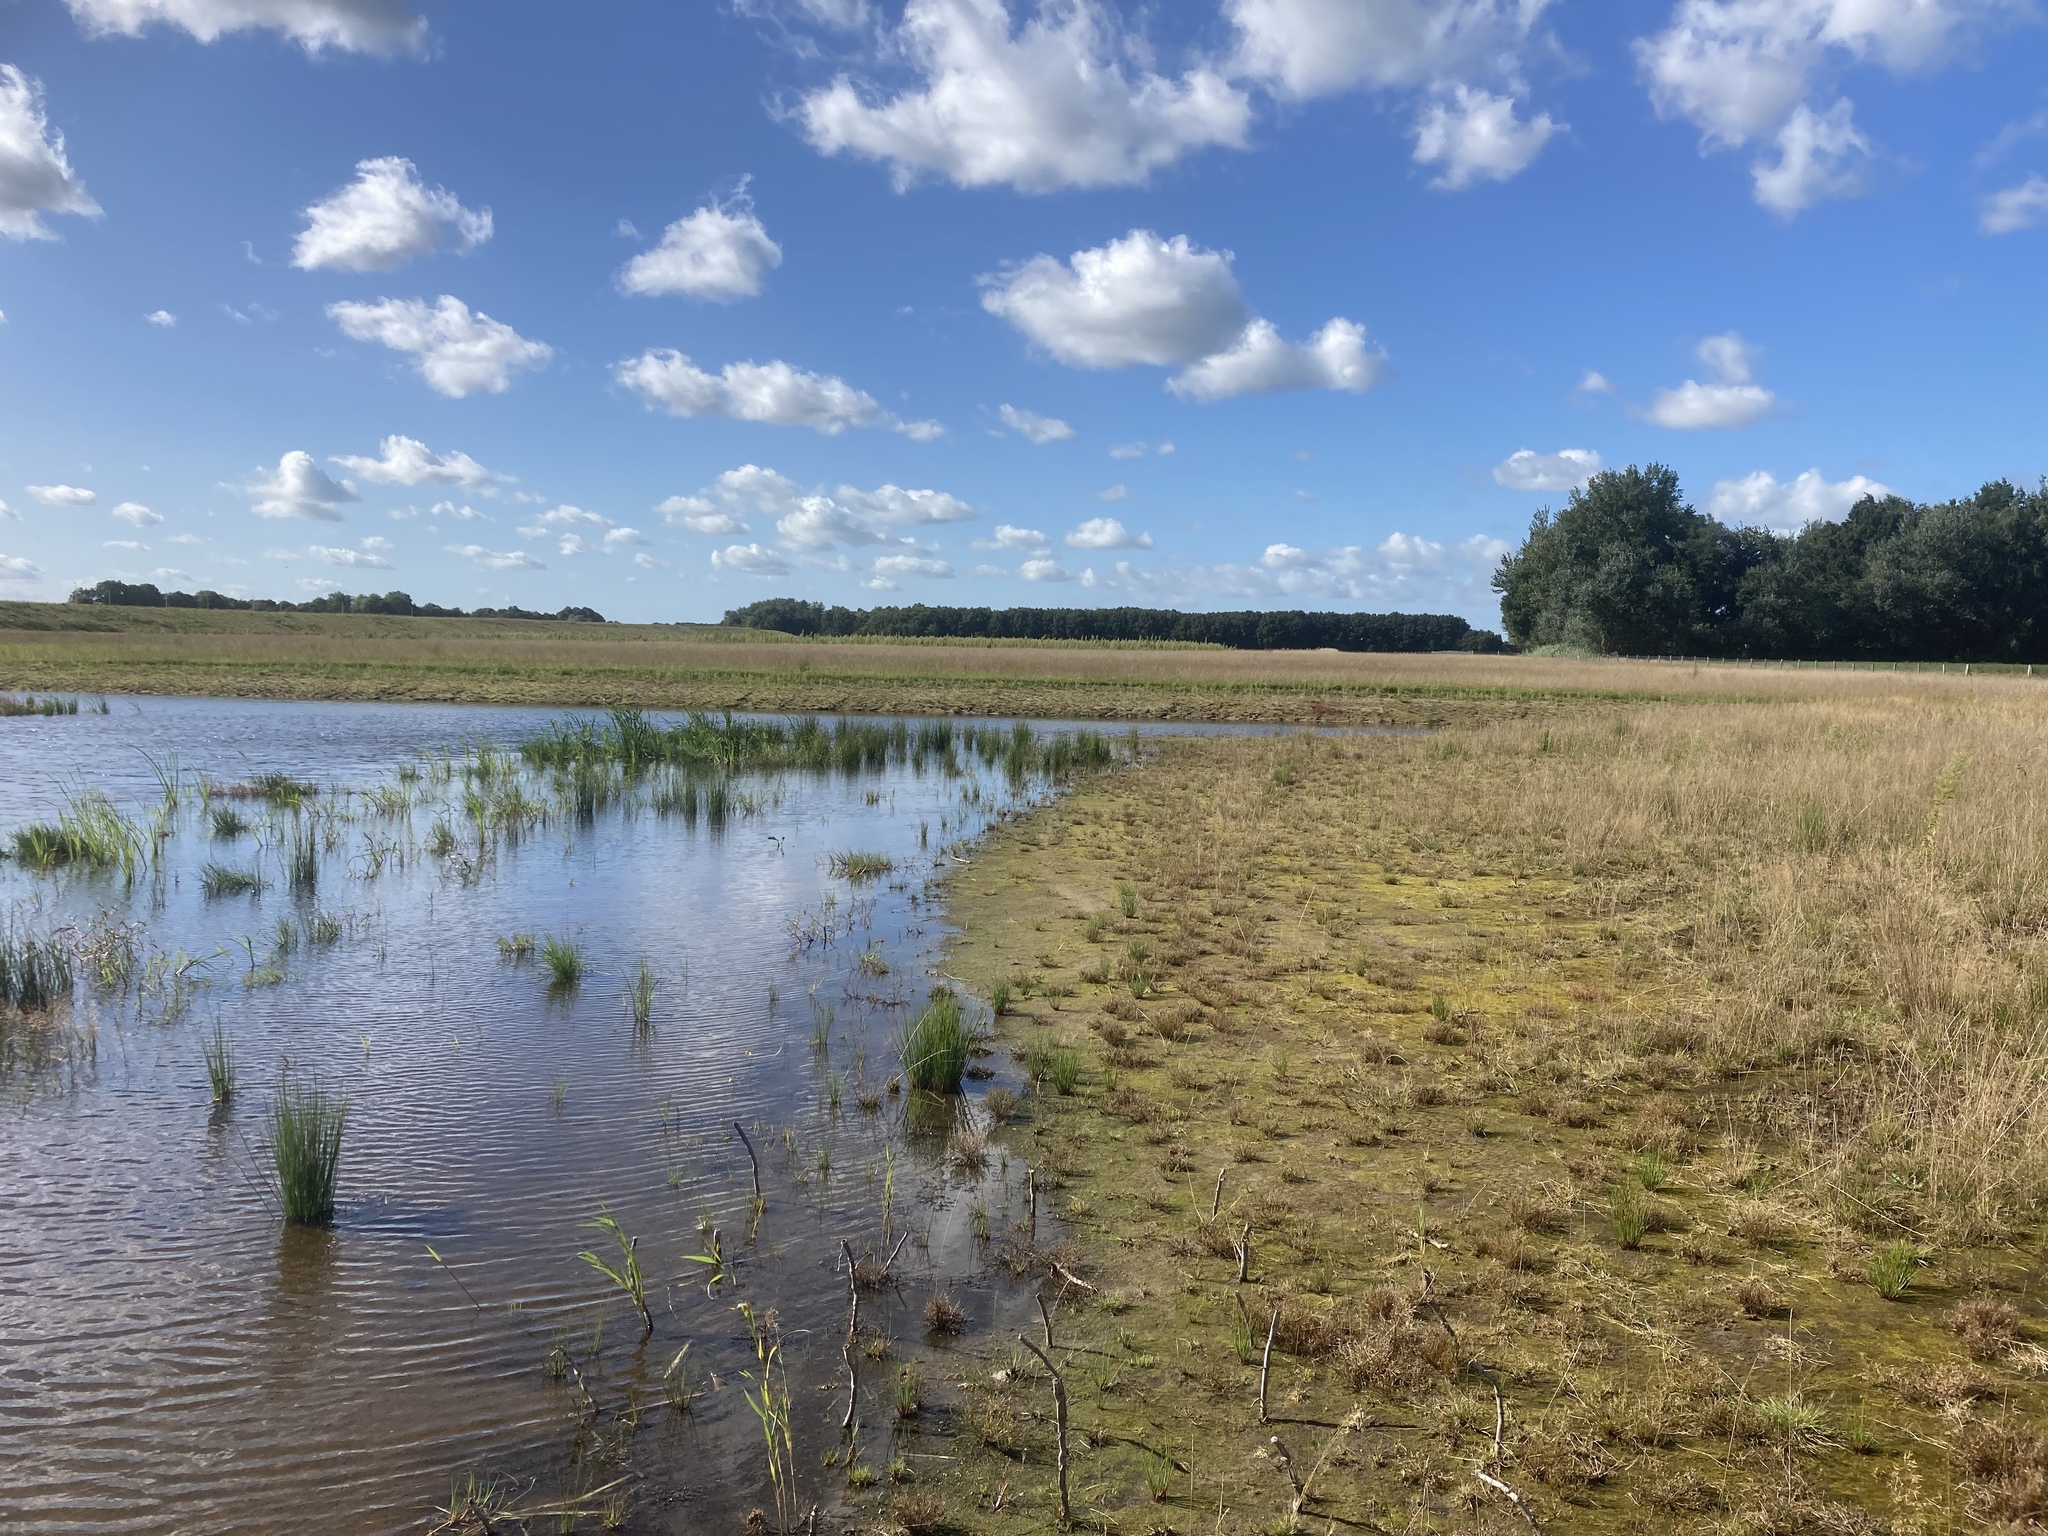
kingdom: Plantae
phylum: Tracheophyta
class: Liliopsida
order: Poales
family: Juncaceae
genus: Juncus
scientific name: Juncus effusus
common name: Soft rush
